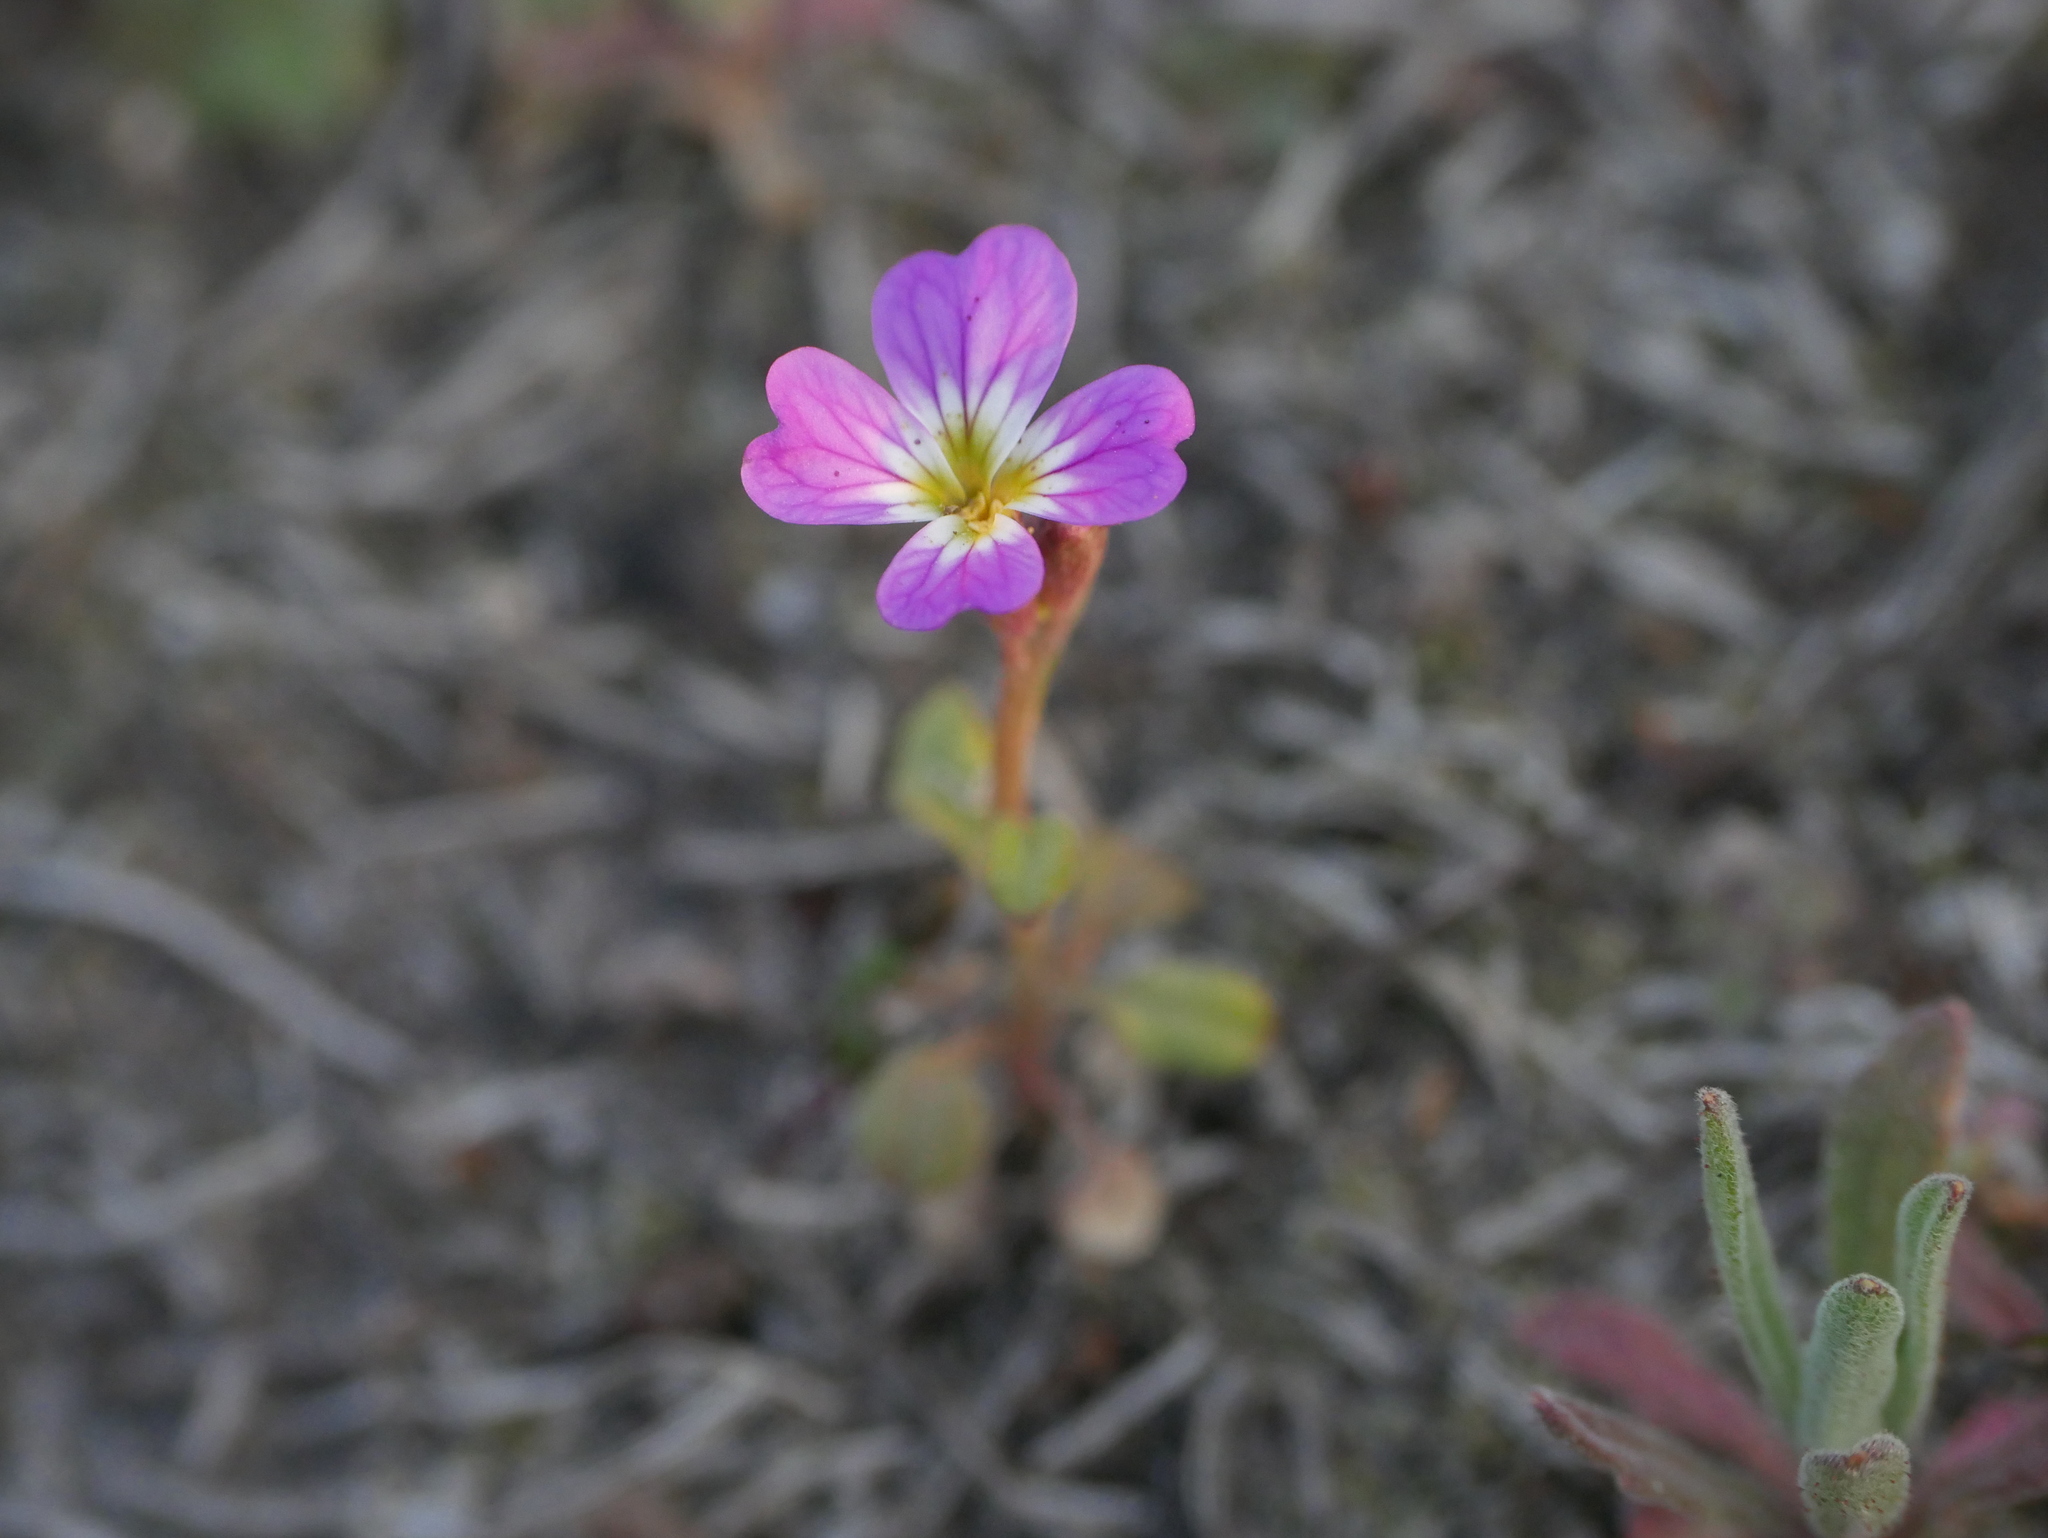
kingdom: Plantae
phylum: Tracheophyta
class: Magnoliopsida
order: Brassicales
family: Brassicaceae
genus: Malcolmia
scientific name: Malcolmia maritima
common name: Virginia stock
